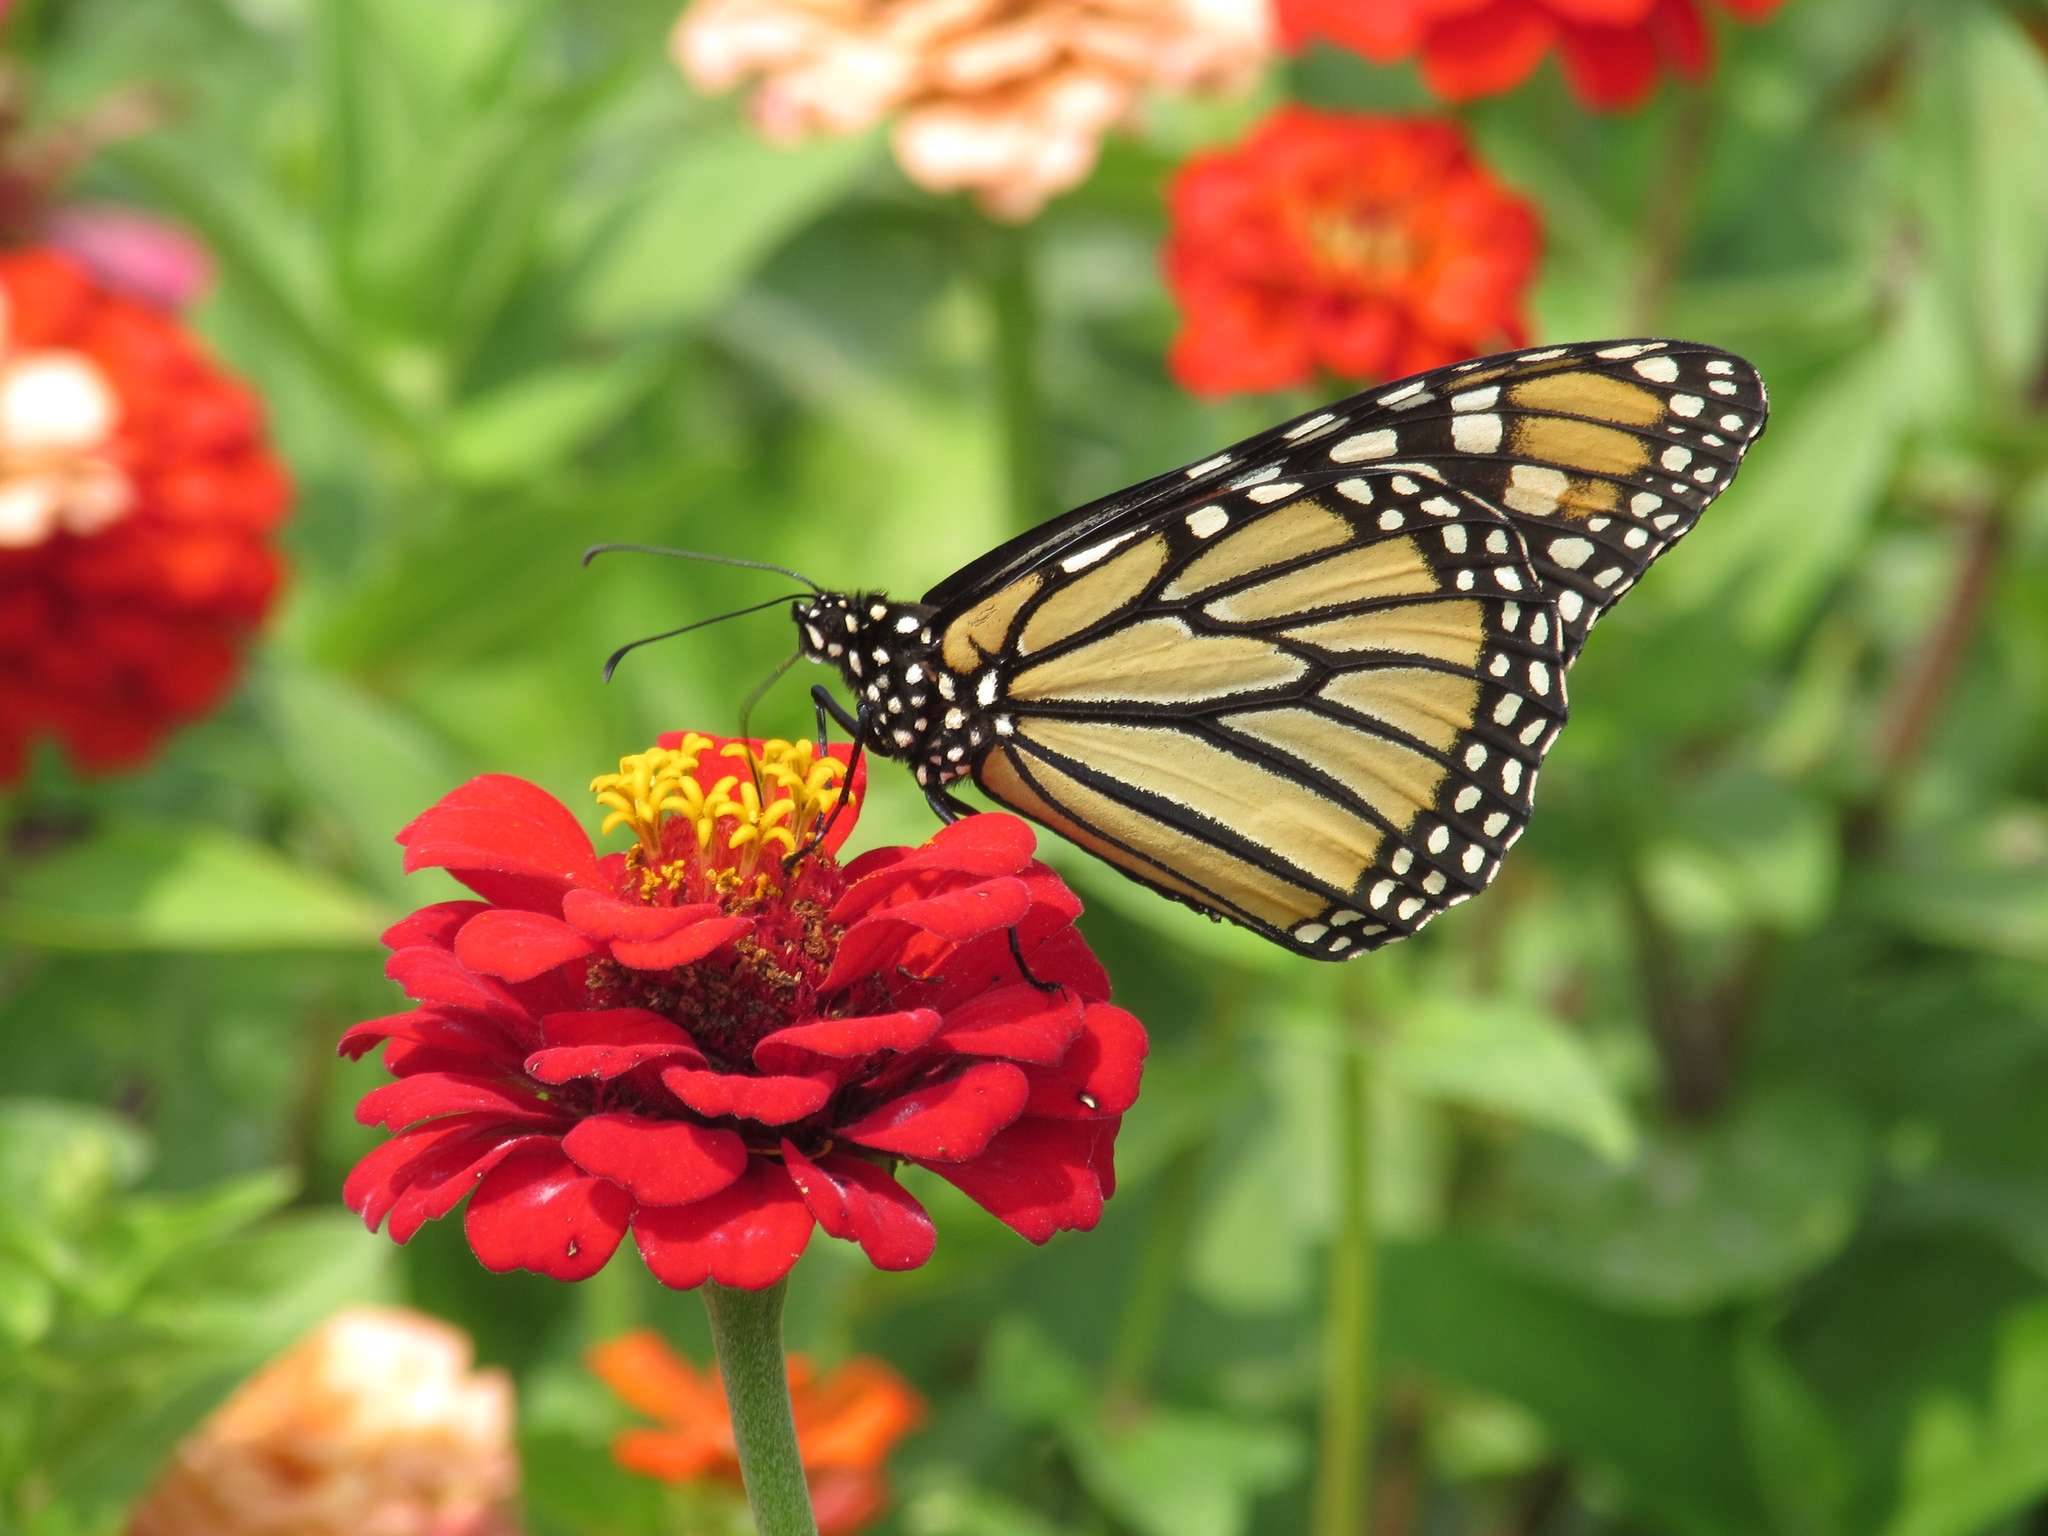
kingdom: Animalia
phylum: Arthropoda
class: Insecta
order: Lepidoptera
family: Nymphalidae
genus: Danaus
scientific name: Danaus plexippus
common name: Monarch
